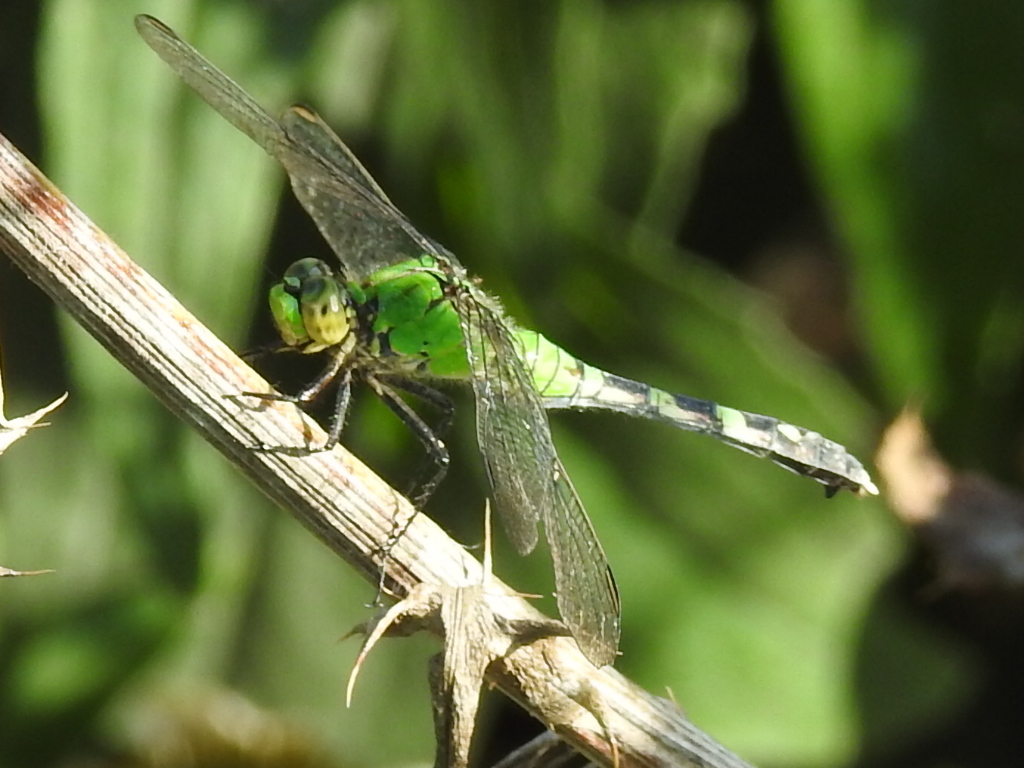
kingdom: Animalia
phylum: Arthropoda
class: Insecta
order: Odonata
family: Libellulidae
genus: Erythemis
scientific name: Erythemis simplicicollis
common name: Eastern pondhawk
